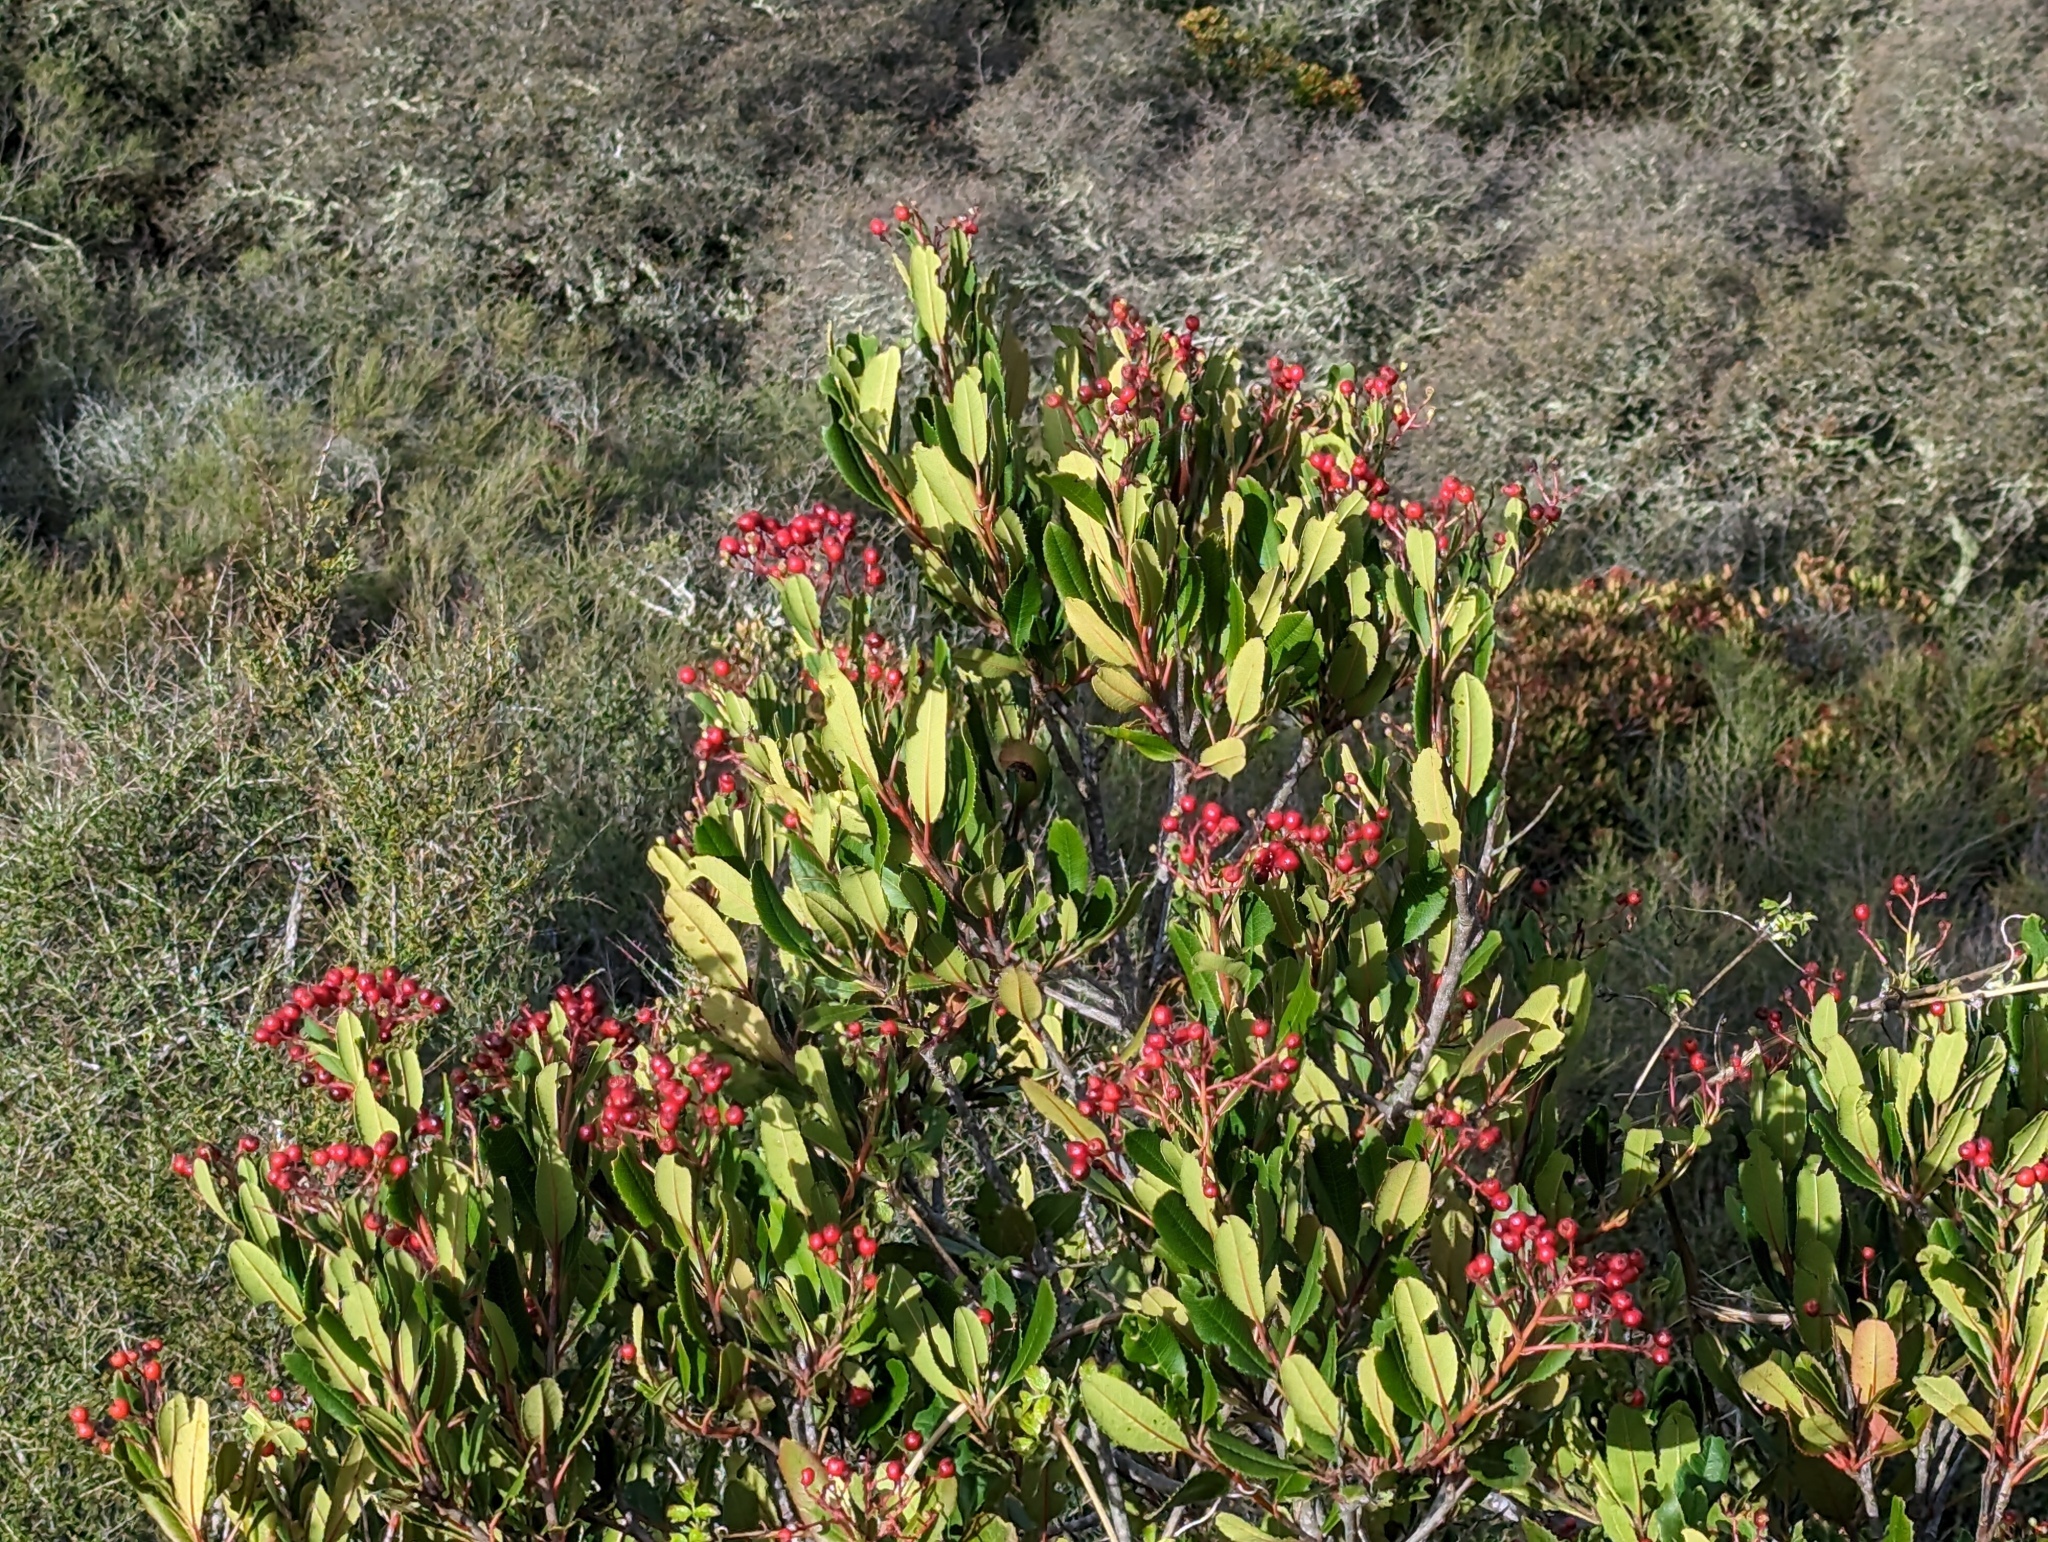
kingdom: Plantae
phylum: Tracheophyta
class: Magnoliopsida
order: Rosales
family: Rosaceae
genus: Heteromeles
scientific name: Heteromeles arbutifolia
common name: California-holly
